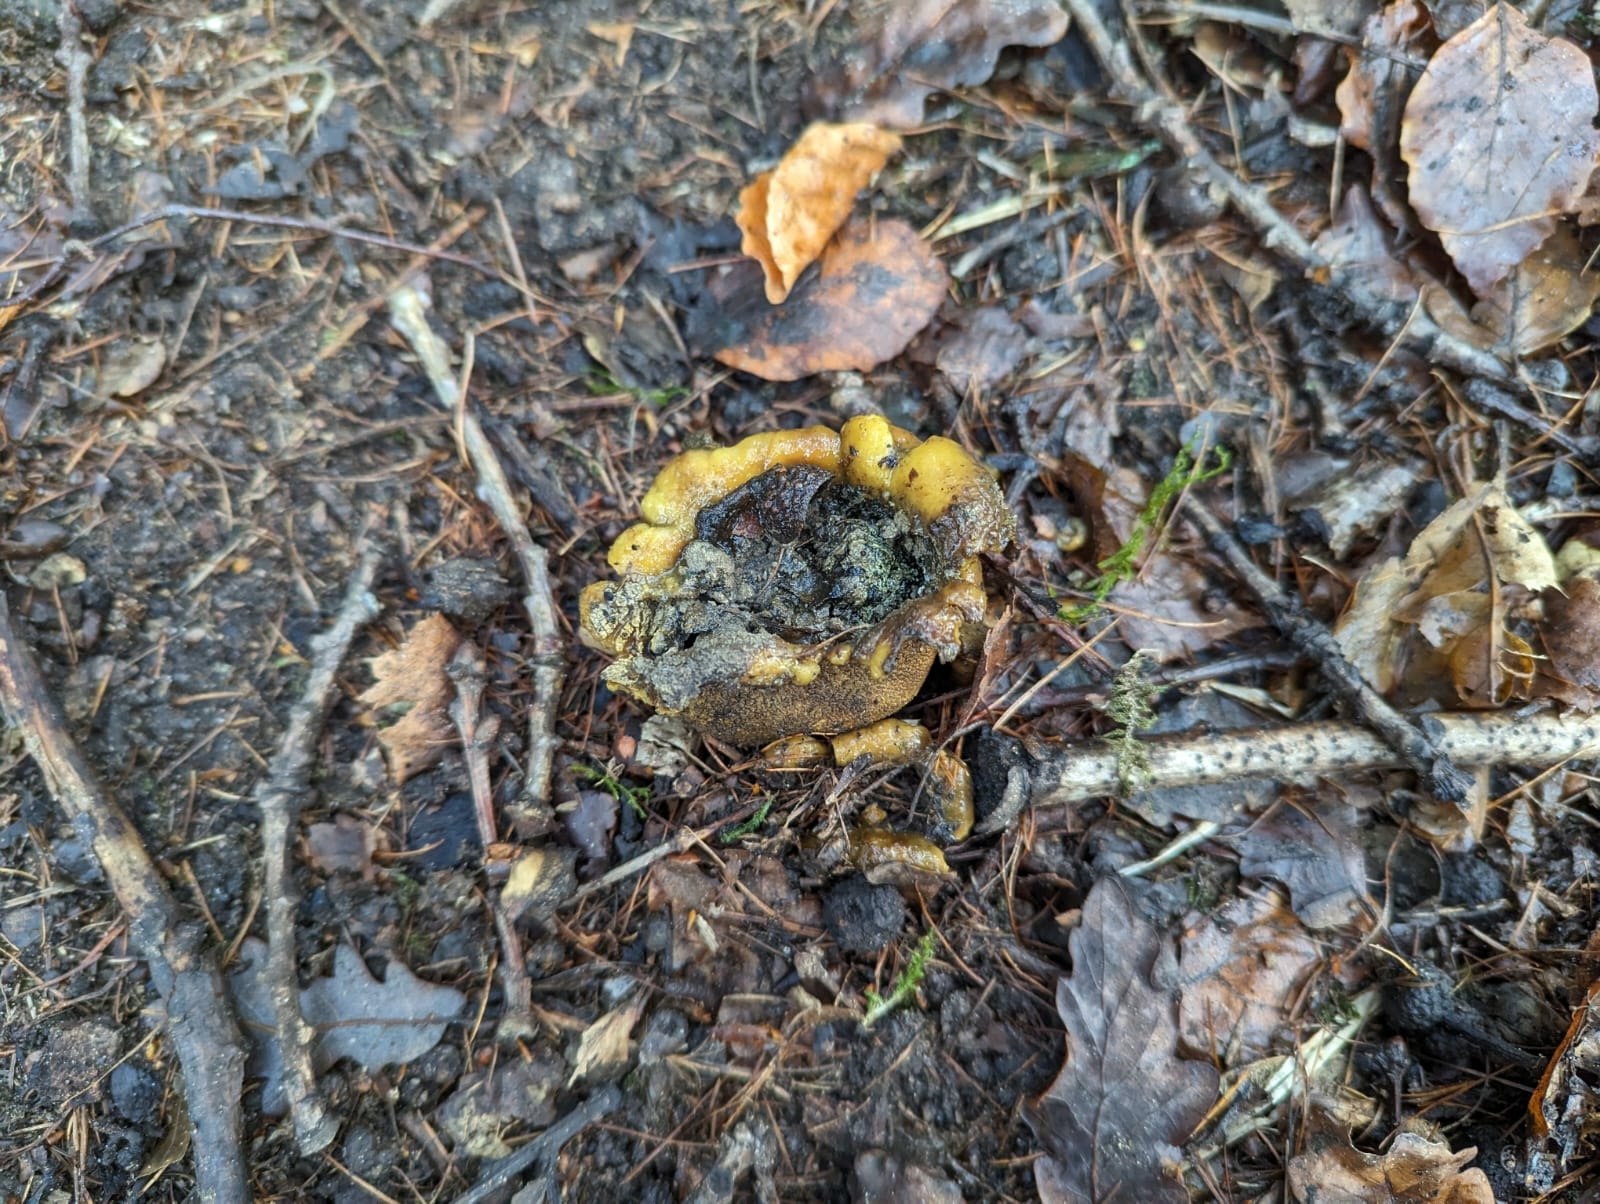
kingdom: Fungi
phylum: Basidiomycota
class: Agaricomycetes
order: Boletales
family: Sclerodermataceae
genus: Scleroderma
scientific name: Scleroderma citrinum
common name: Common earthball
